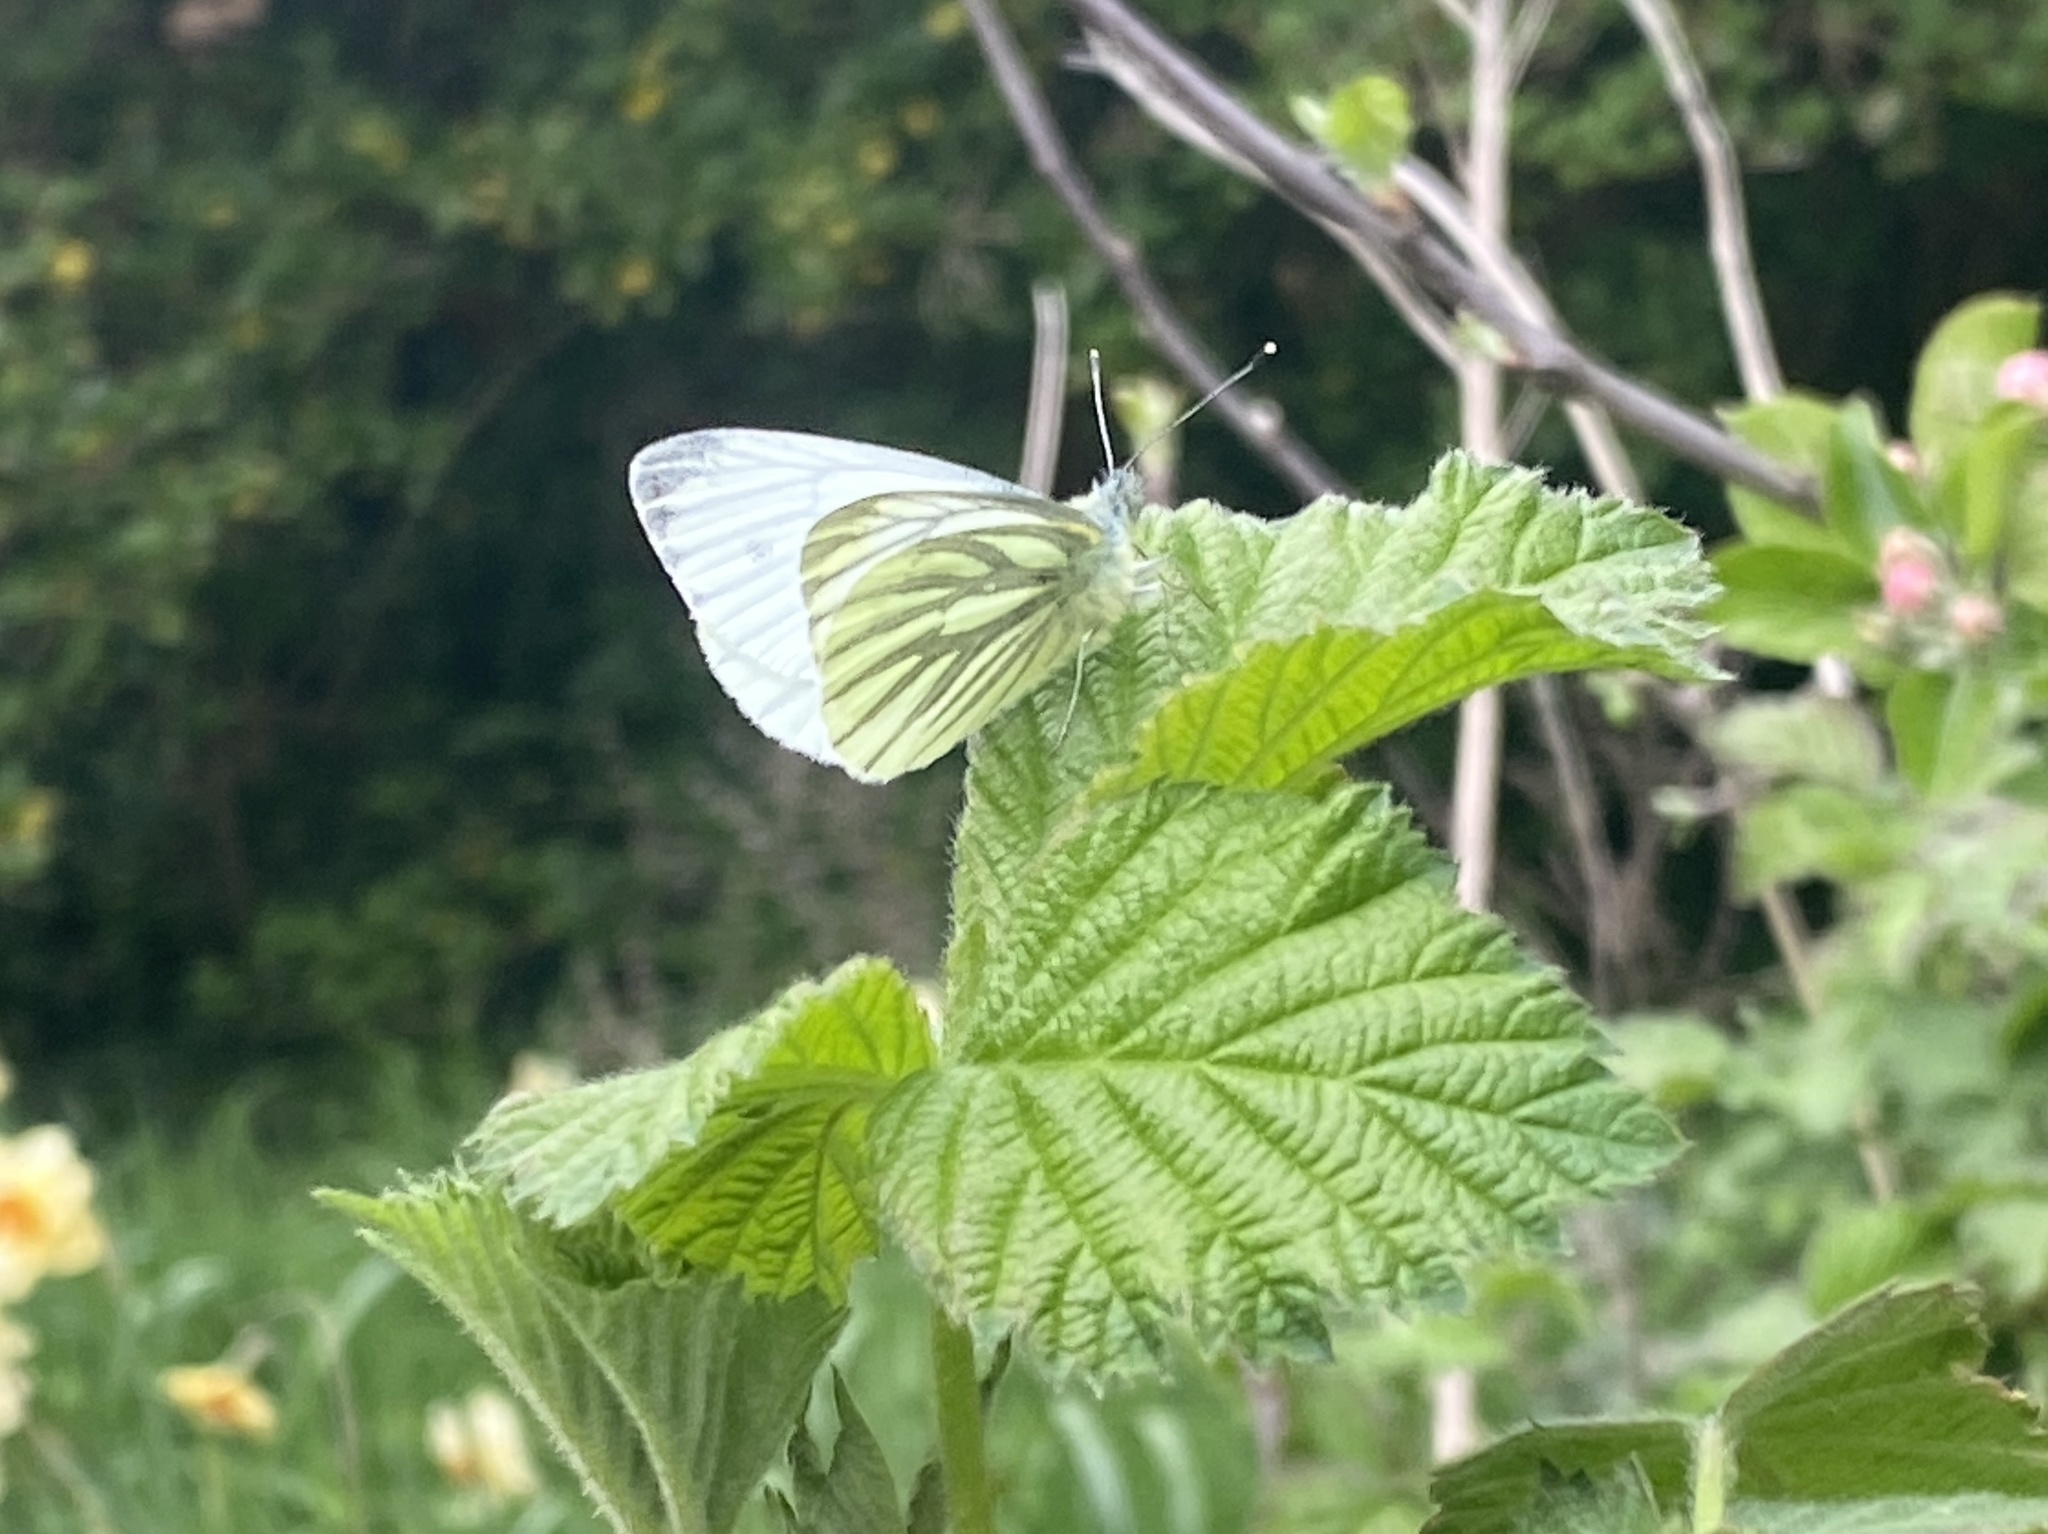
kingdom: Animalia
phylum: Arthropoda
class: Insecta
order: Lepidoptera
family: Pieridae
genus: Pieris
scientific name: Pieris napi
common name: Green-veined white
